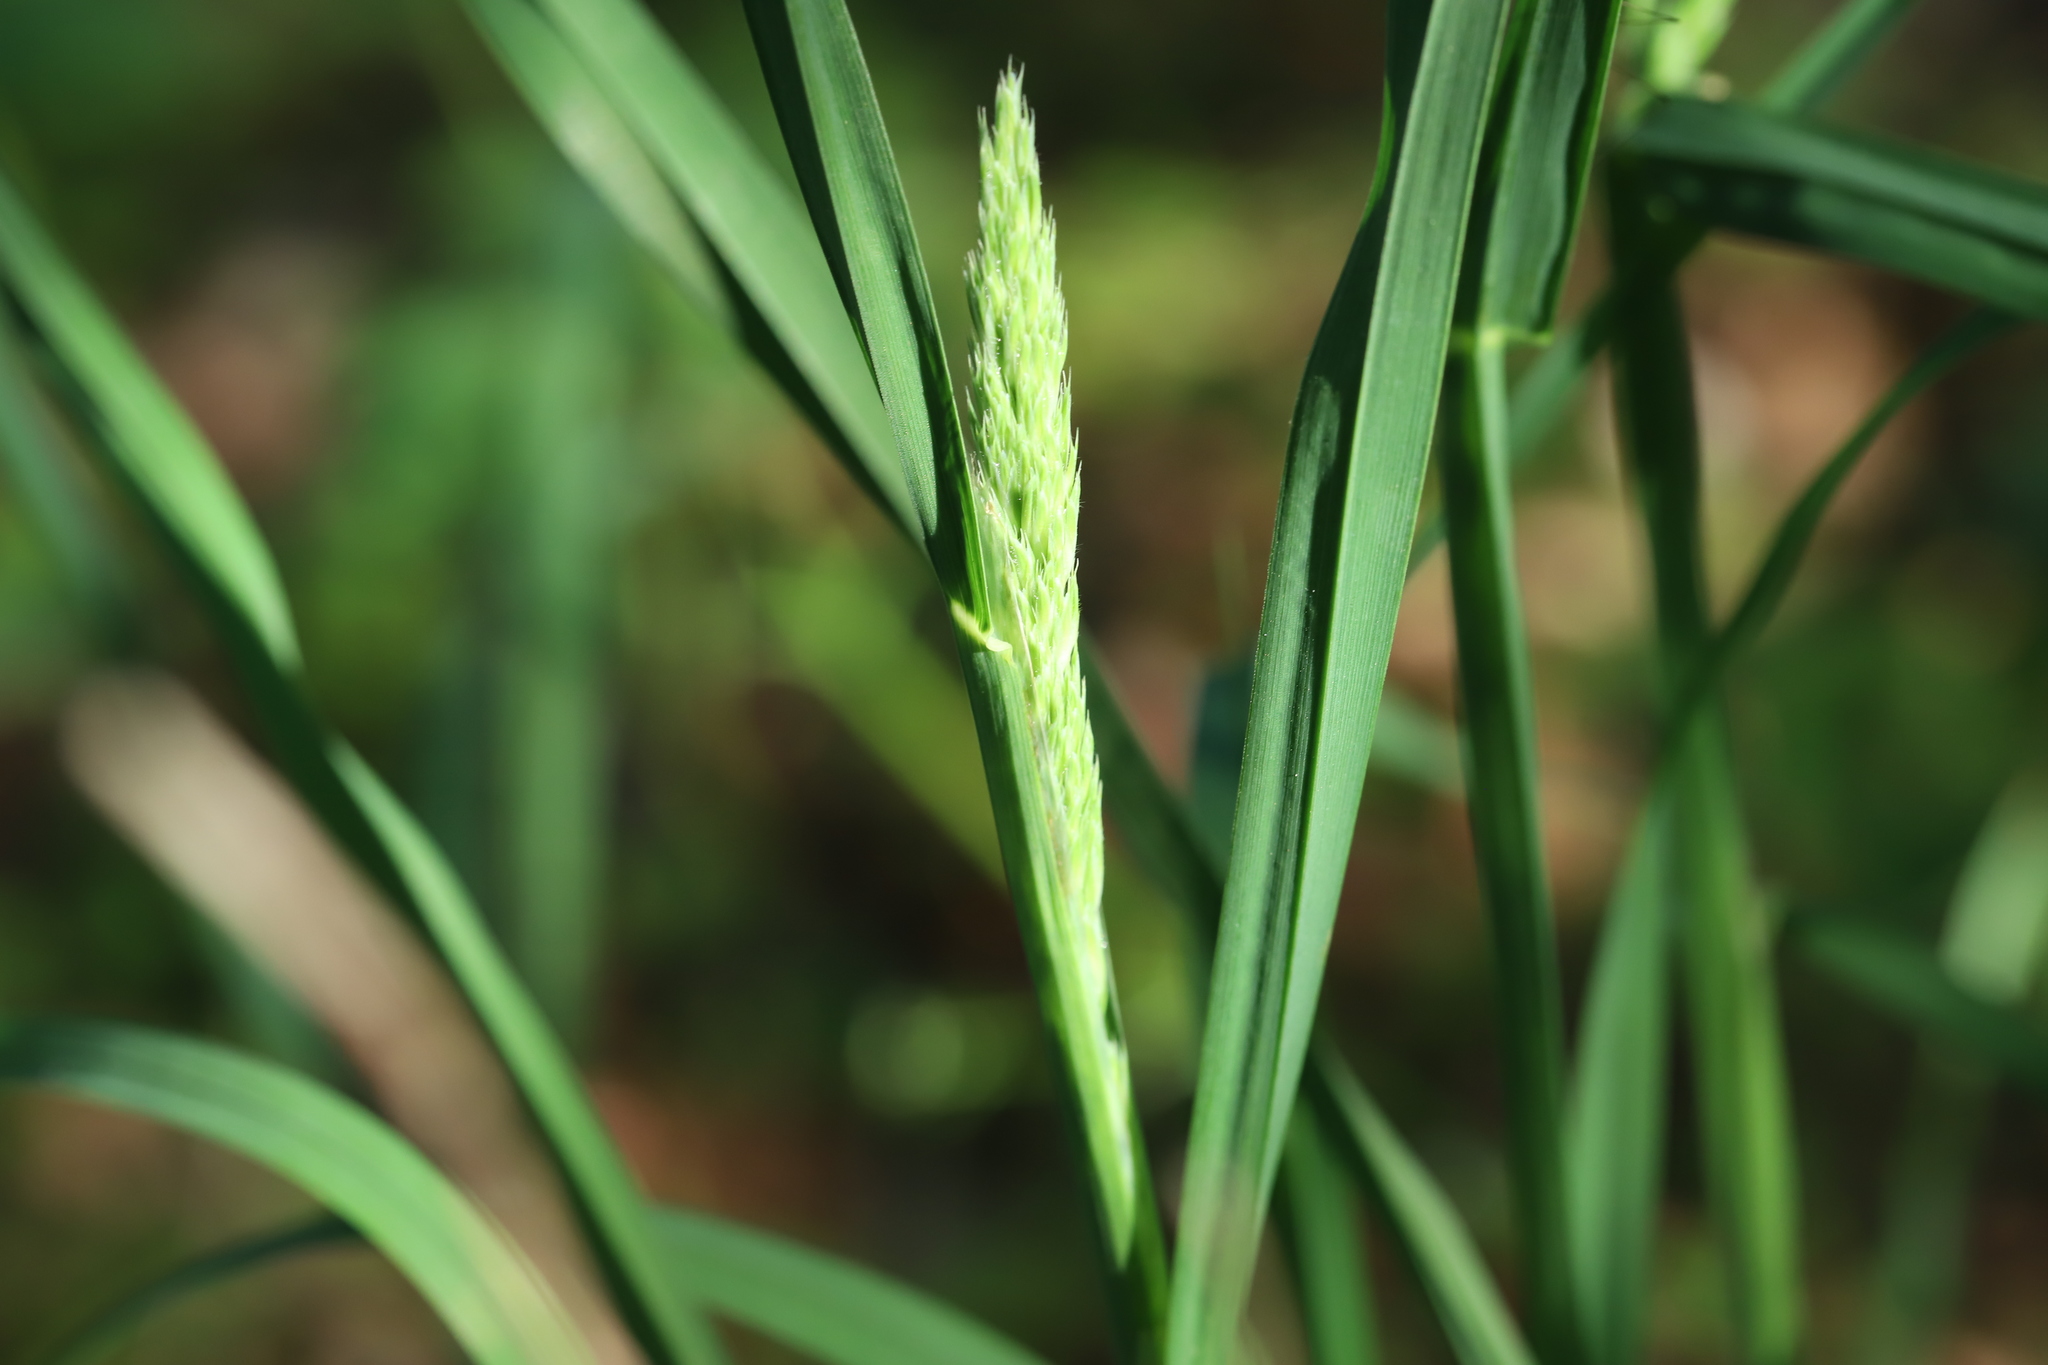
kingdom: Plantae
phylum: Tracheophyta
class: Liliopsida
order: Poales
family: Poaceae
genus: Dactylis
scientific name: Dactylis glomerata
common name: Orchardgrass
